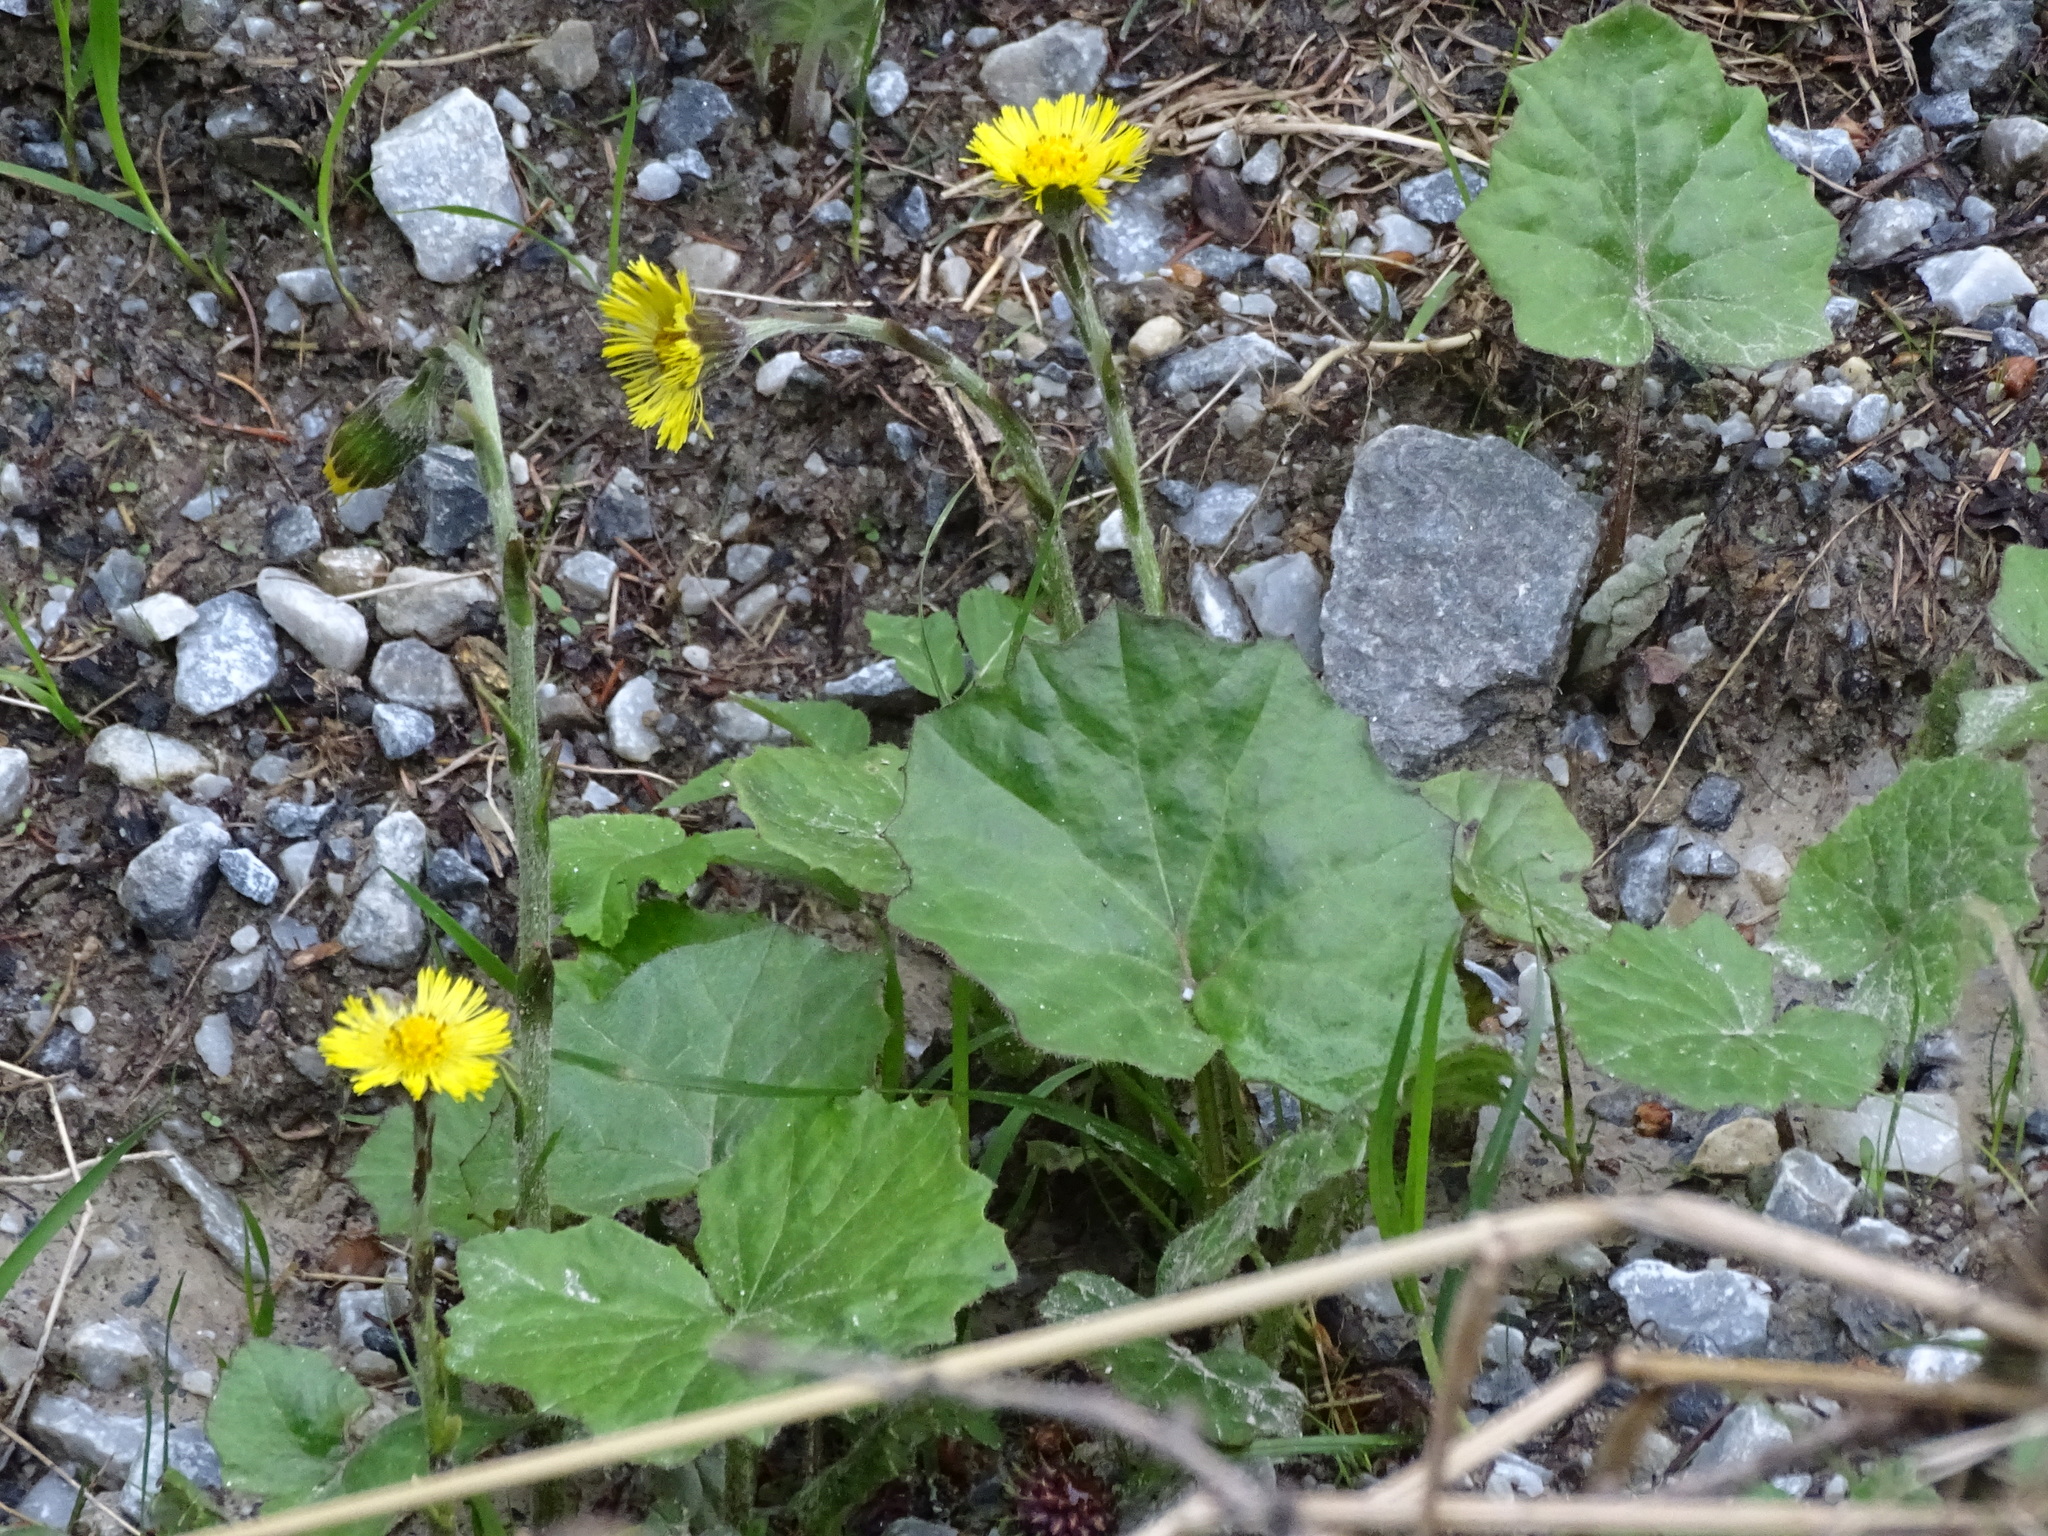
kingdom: Plantae
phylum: Tracheophyta
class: Magnoliopsida
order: Asterales
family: Asteraceae
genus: Tussilago
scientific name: Tussilago farfara
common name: Coltsfoot
